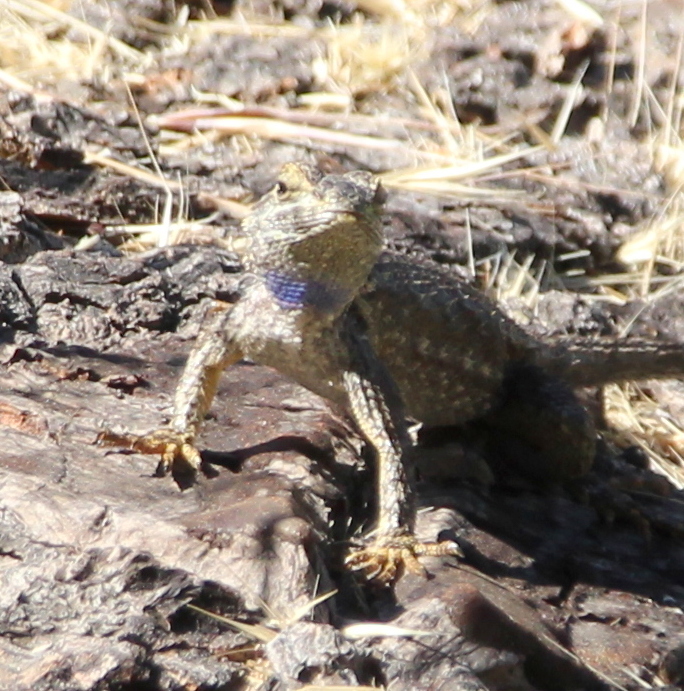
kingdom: Animalia
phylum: Chordata
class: Squamata
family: Phrynosomatidae
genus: Sceloporus
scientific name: Sceloporus occidentalis
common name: Western fence lizard
